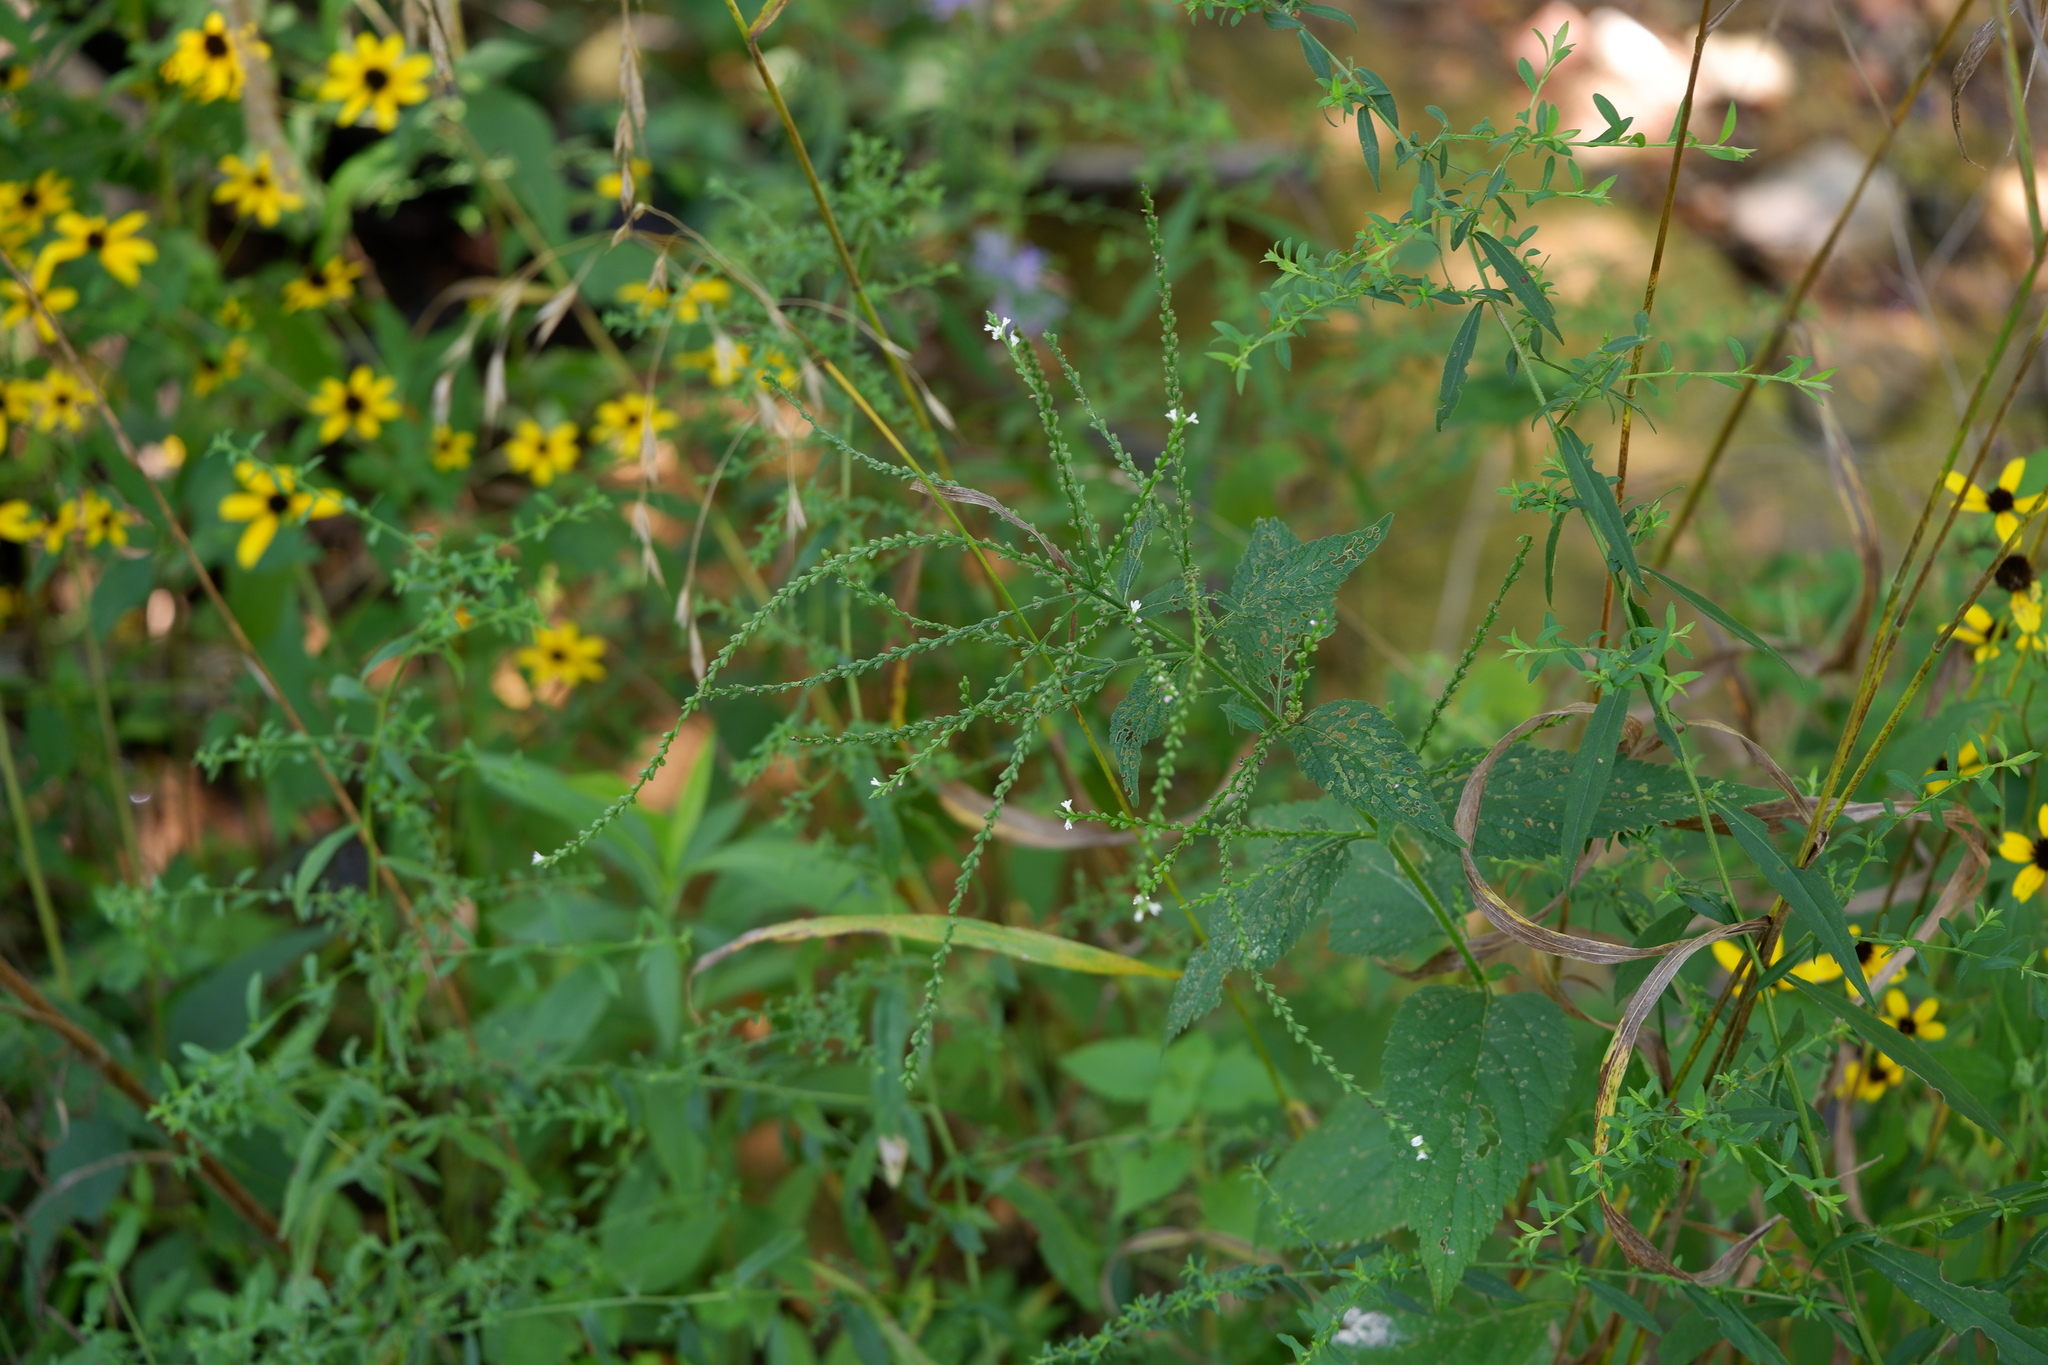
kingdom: Plantae
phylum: Tracheophyta
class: Magnoliopsida
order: Lamiales
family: Verbenaceae
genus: Verbena
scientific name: Verbena urticifolia
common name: Nettle-leaved vervain
